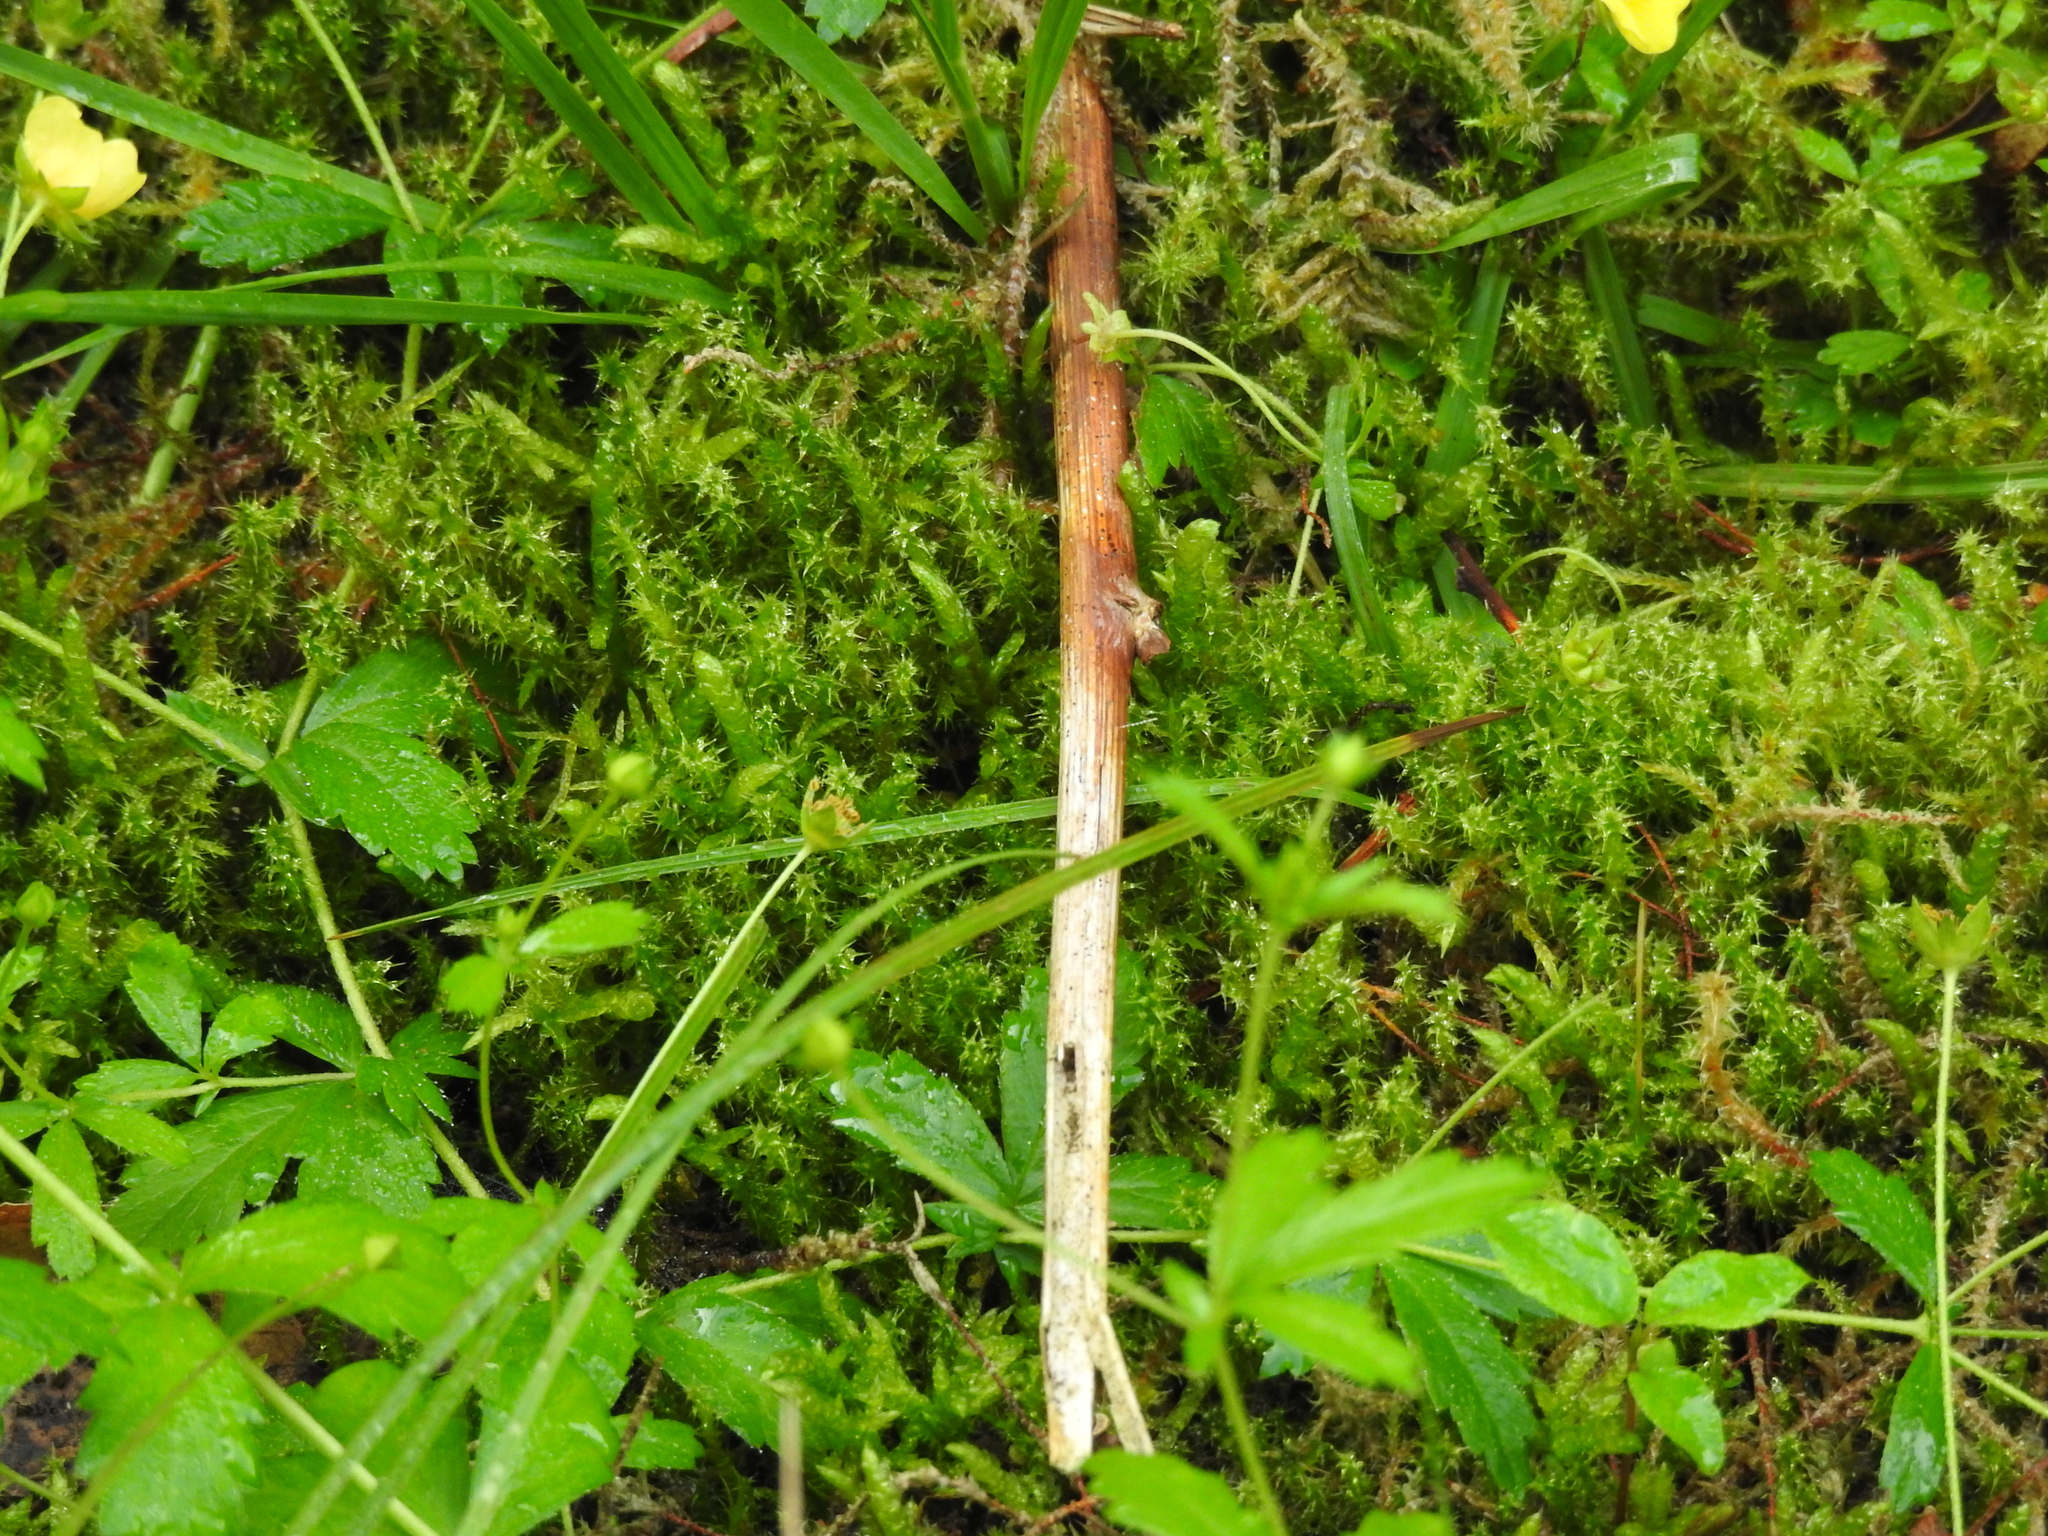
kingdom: Plantae
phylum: Bryophyta
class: Bryopsida
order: Hypnales
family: Hylocomiaceae
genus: Rhytidiadelphus
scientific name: Rhytidiadelphus squarrosus
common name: Springy turf-moss
